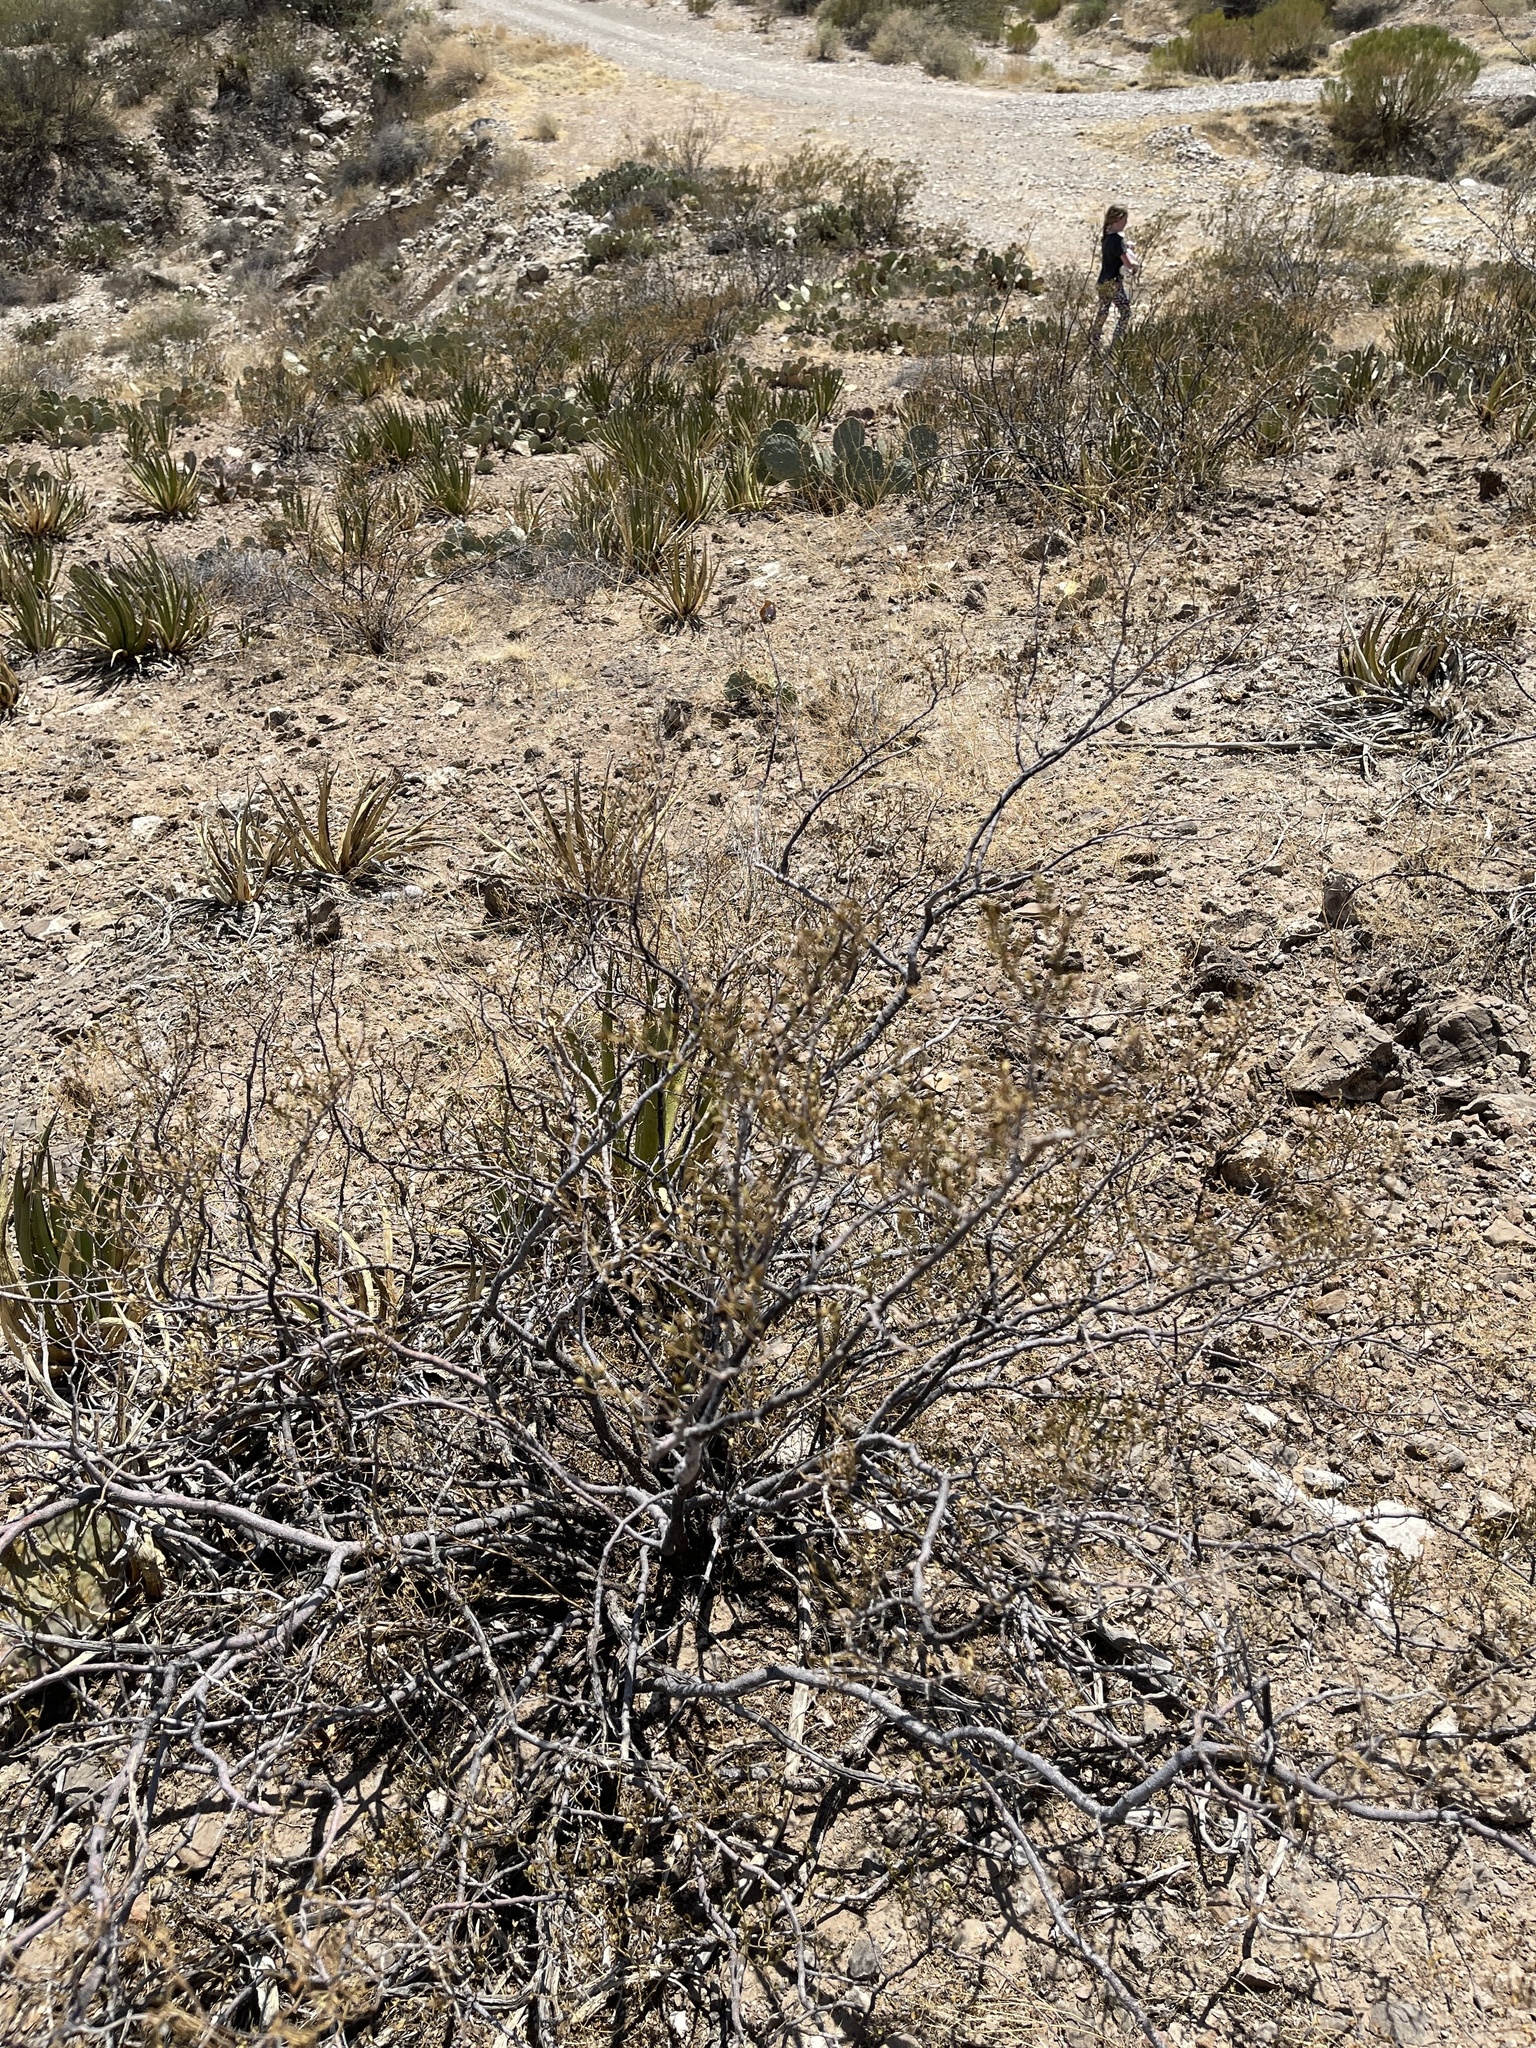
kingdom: Plantae
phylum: Tracheophyta
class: Magnoliopsida
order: Zygophyllales
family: Zygophyllaceae
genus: Larrea
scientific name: Larrea tridentata
